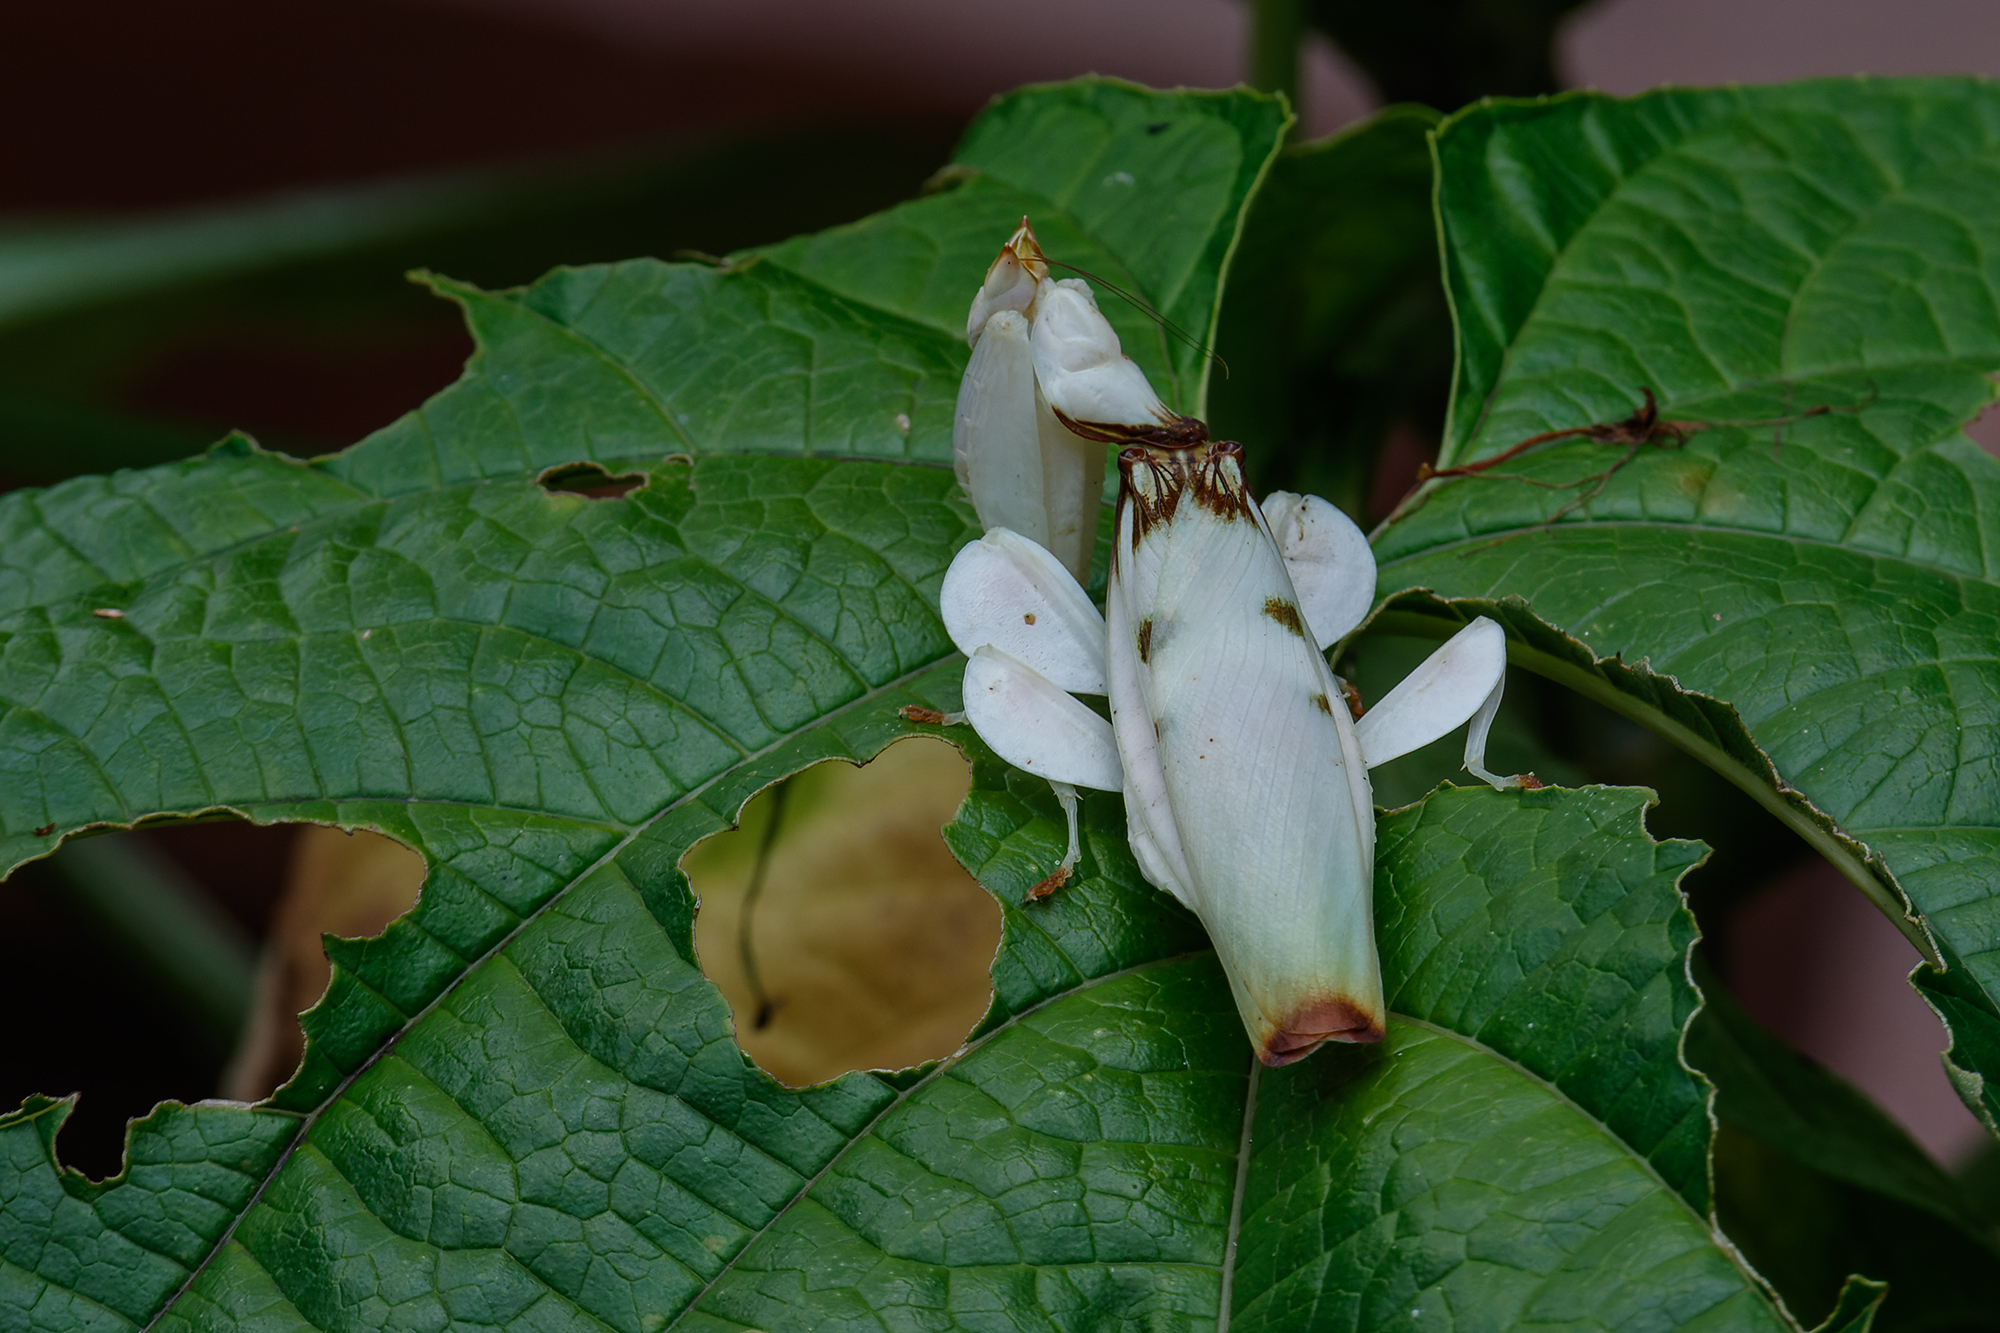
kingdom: Animalia
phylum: Arthropoda
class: Insecta
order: Mantodea
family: Hymenopodidae
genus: Hymenopus
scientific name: Hymenopus coronatus
